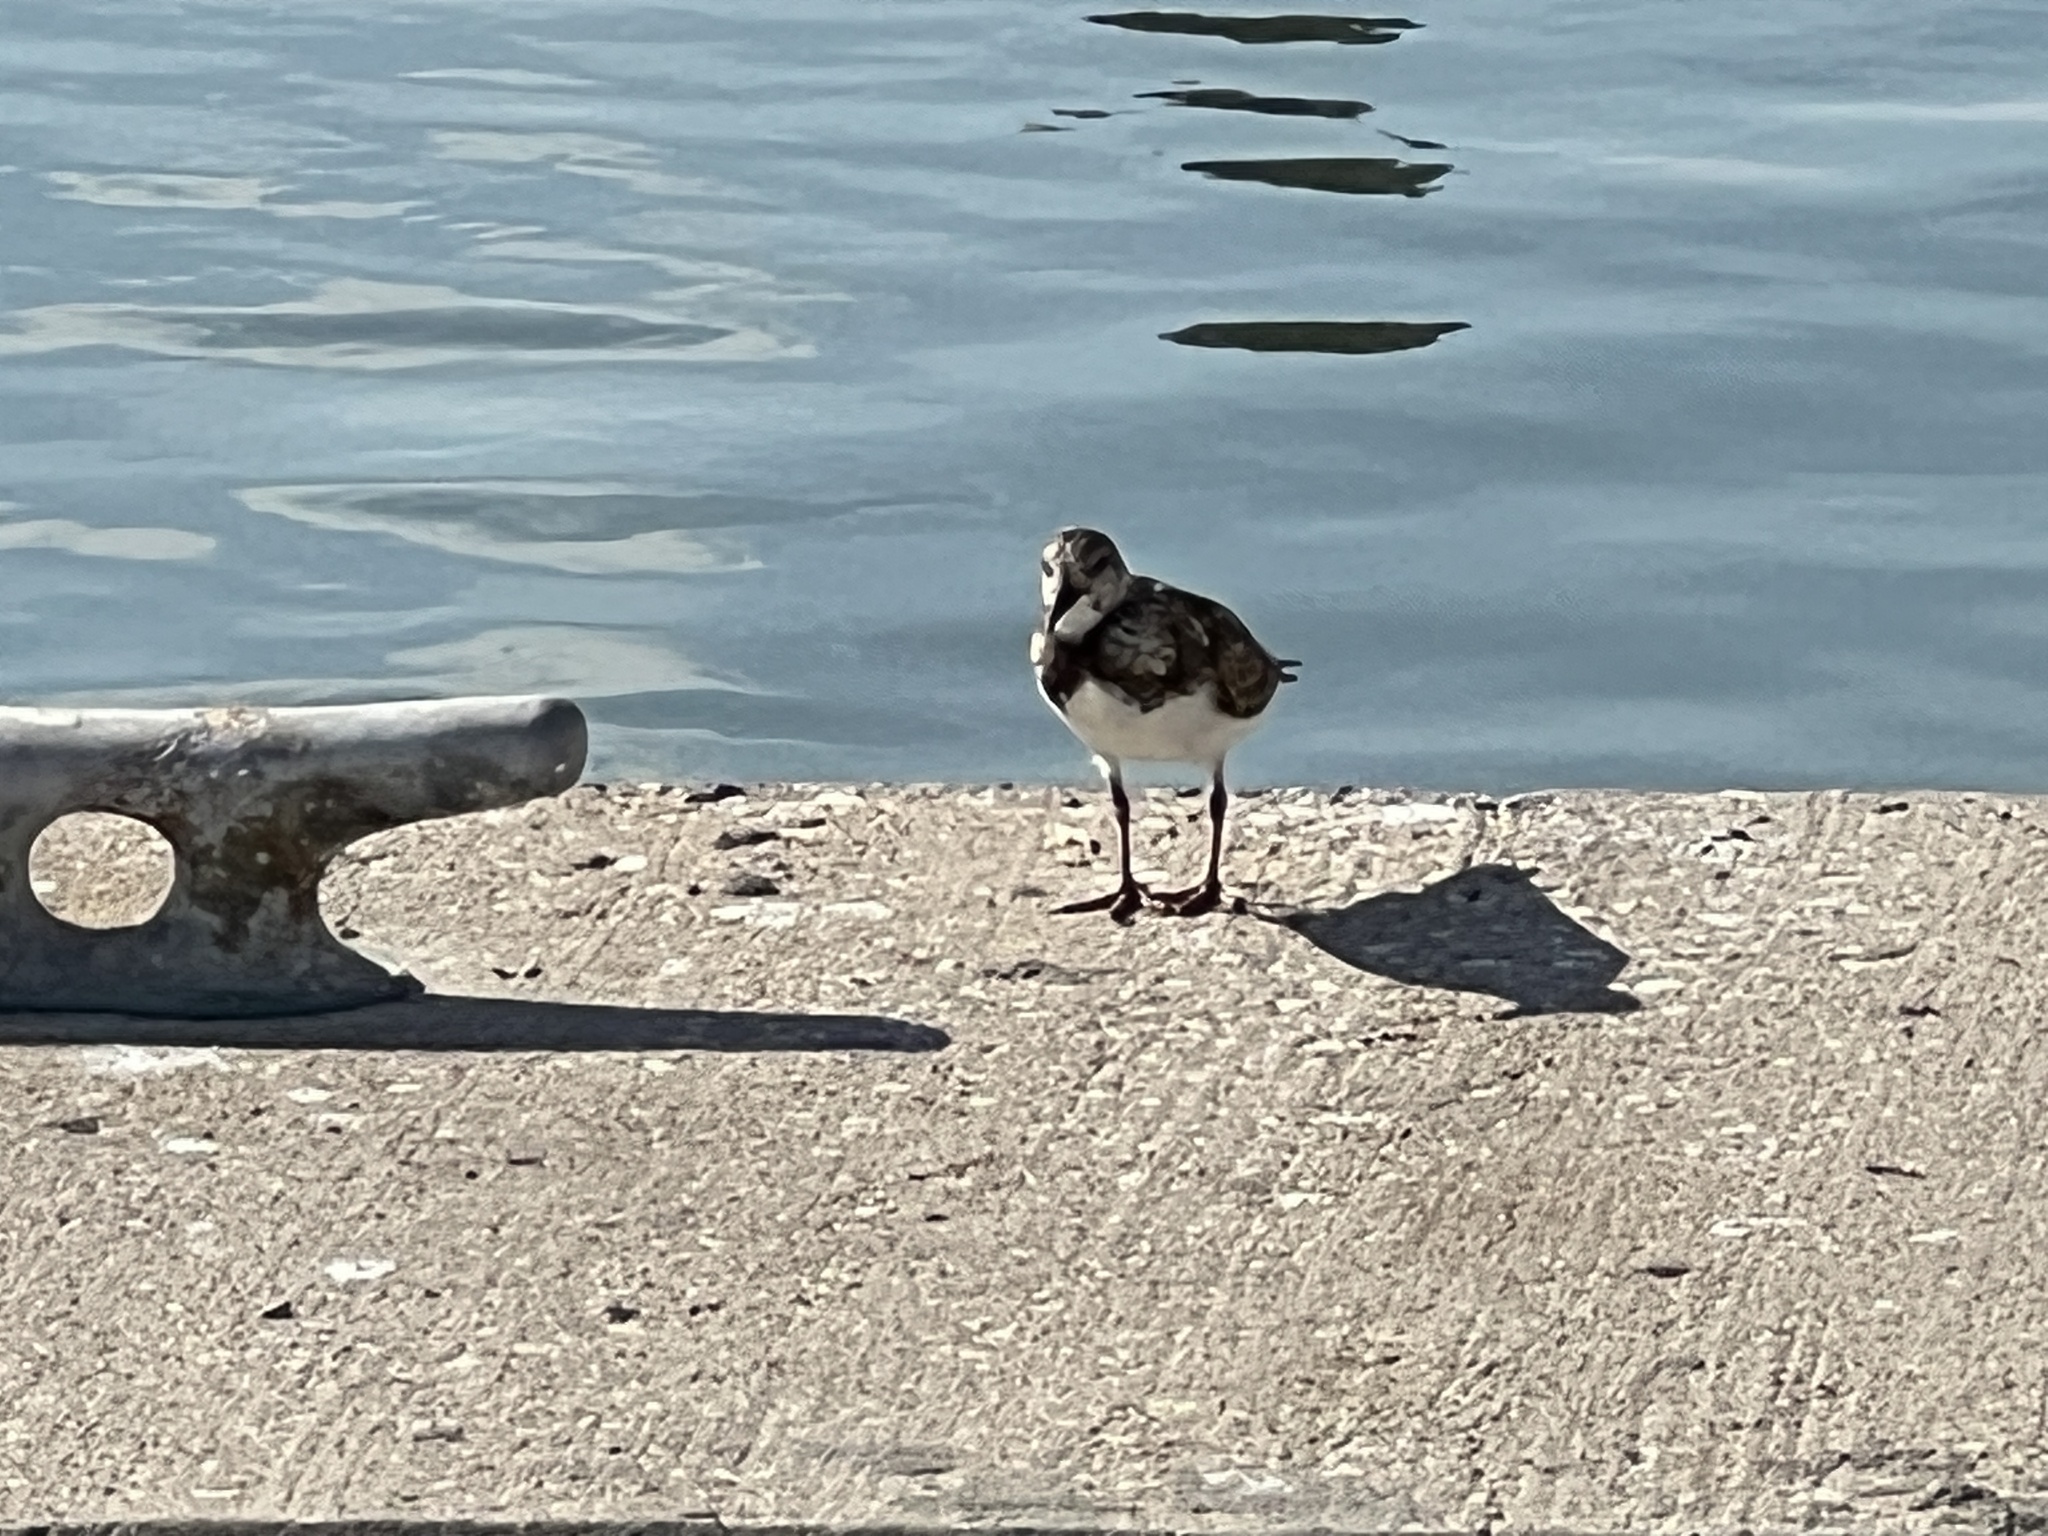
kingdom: Animalia
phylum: Chordata
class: Aves
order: Charadriiformes
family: Scolopacidae
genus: Arenaria
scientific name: Arenaria interpres
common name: Ruddy turnstone
